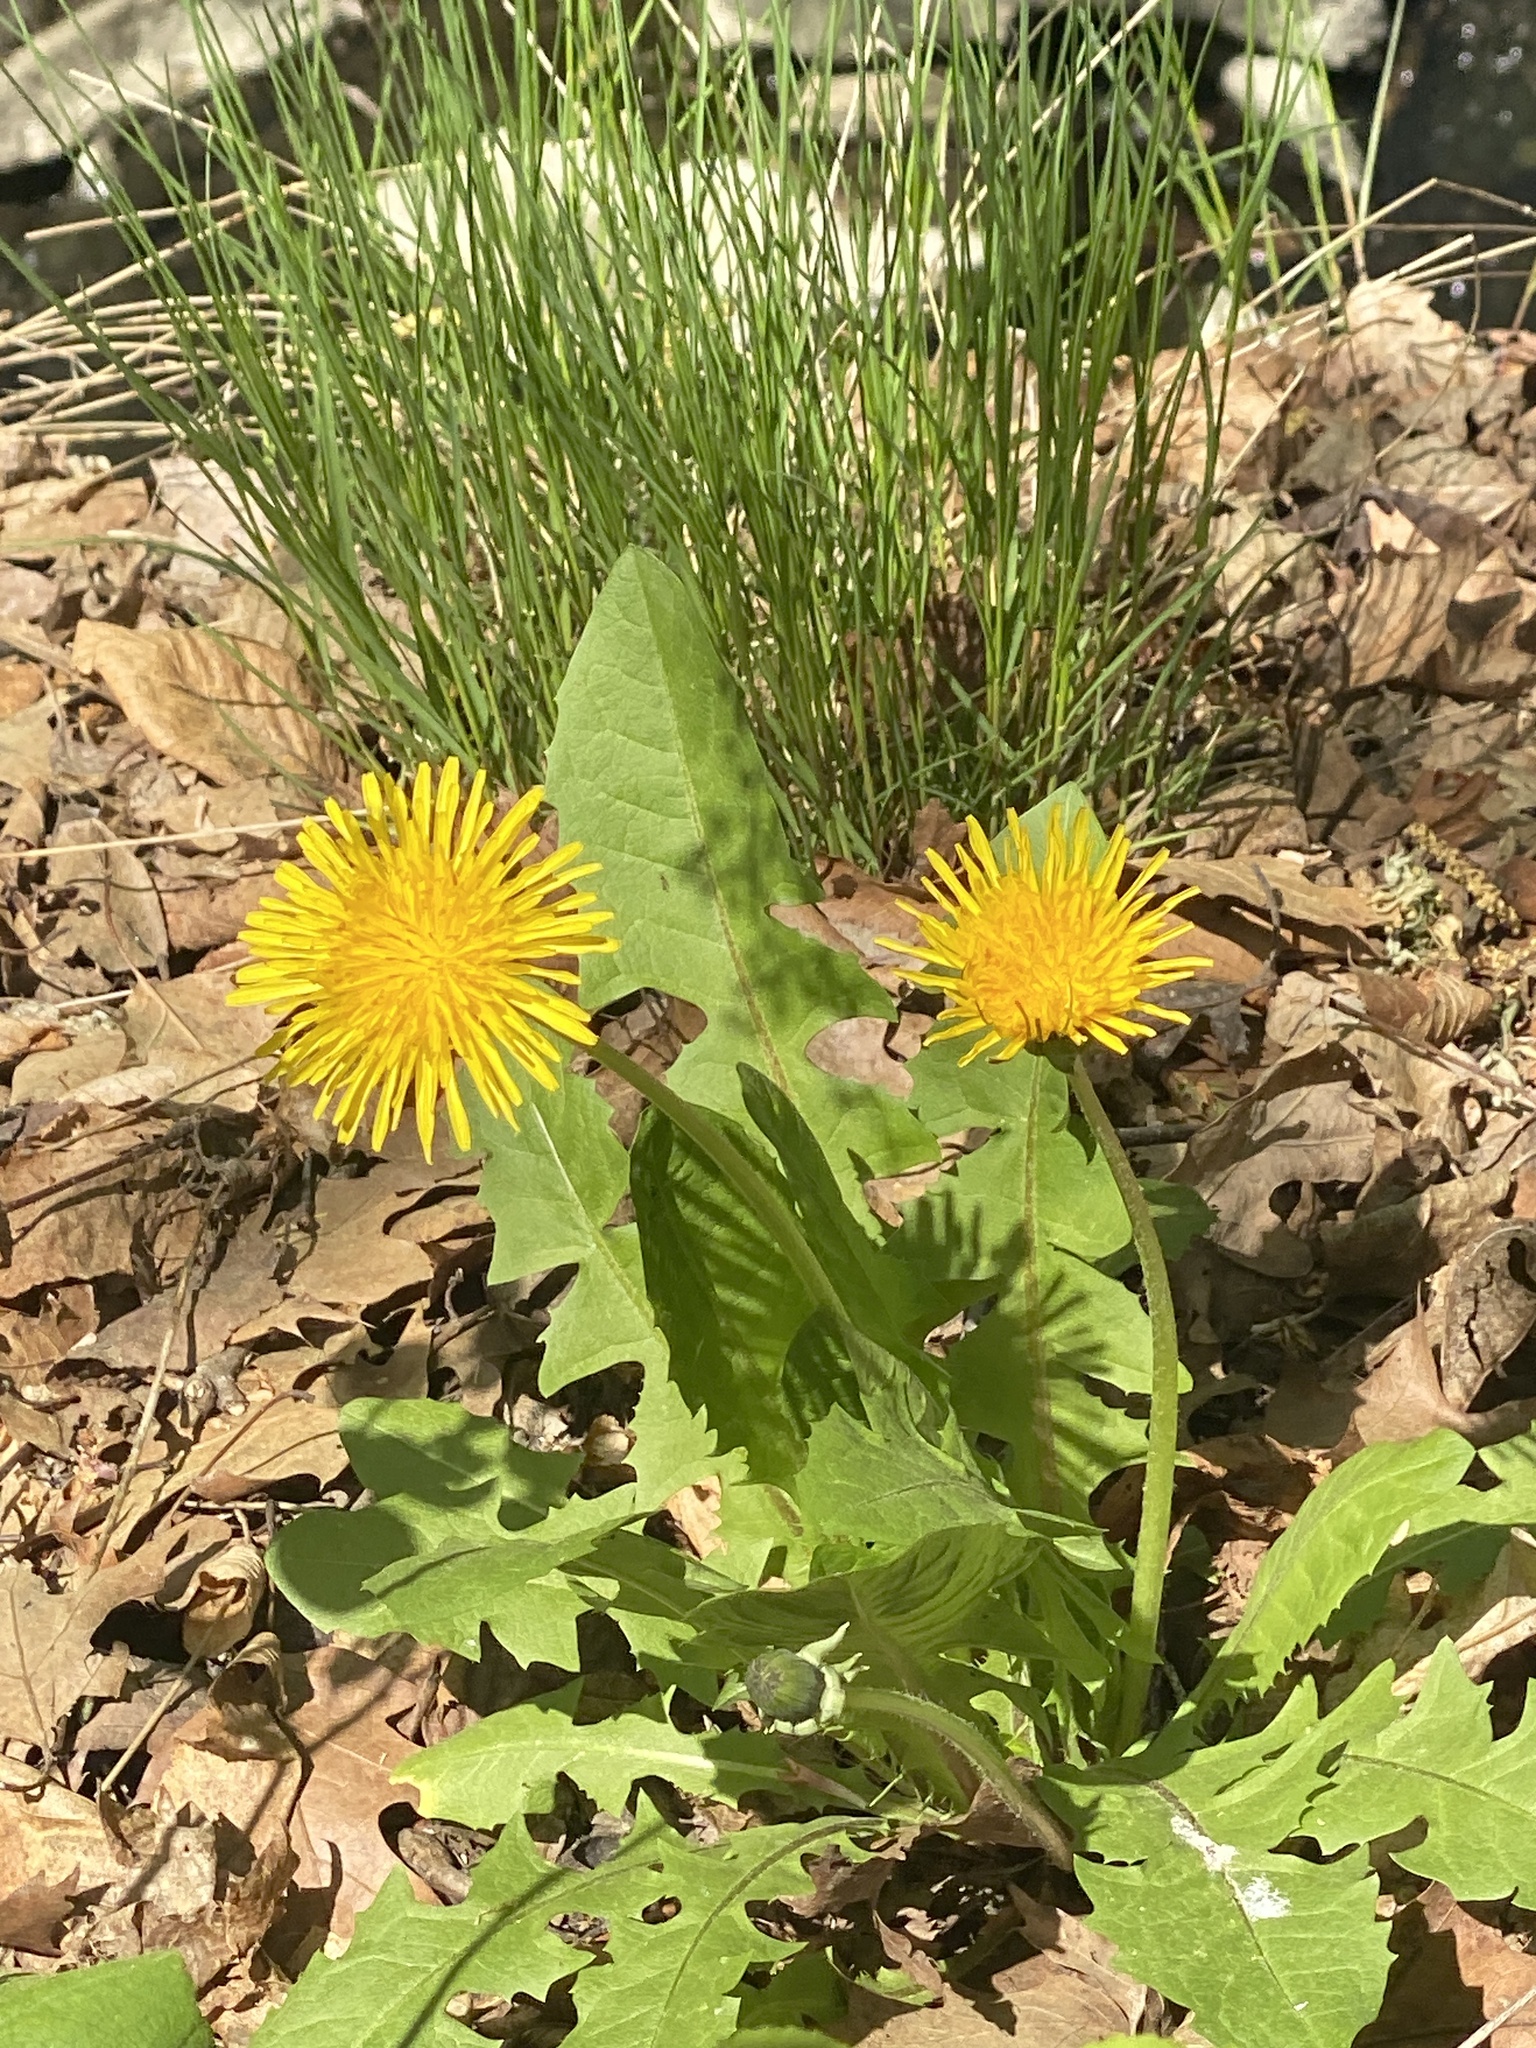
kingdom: Plantae
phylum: Tracheophyta
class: Magnoliopsida
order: Asterales
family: Asteraceae
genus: Taraxacum
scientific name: Taraxacum
